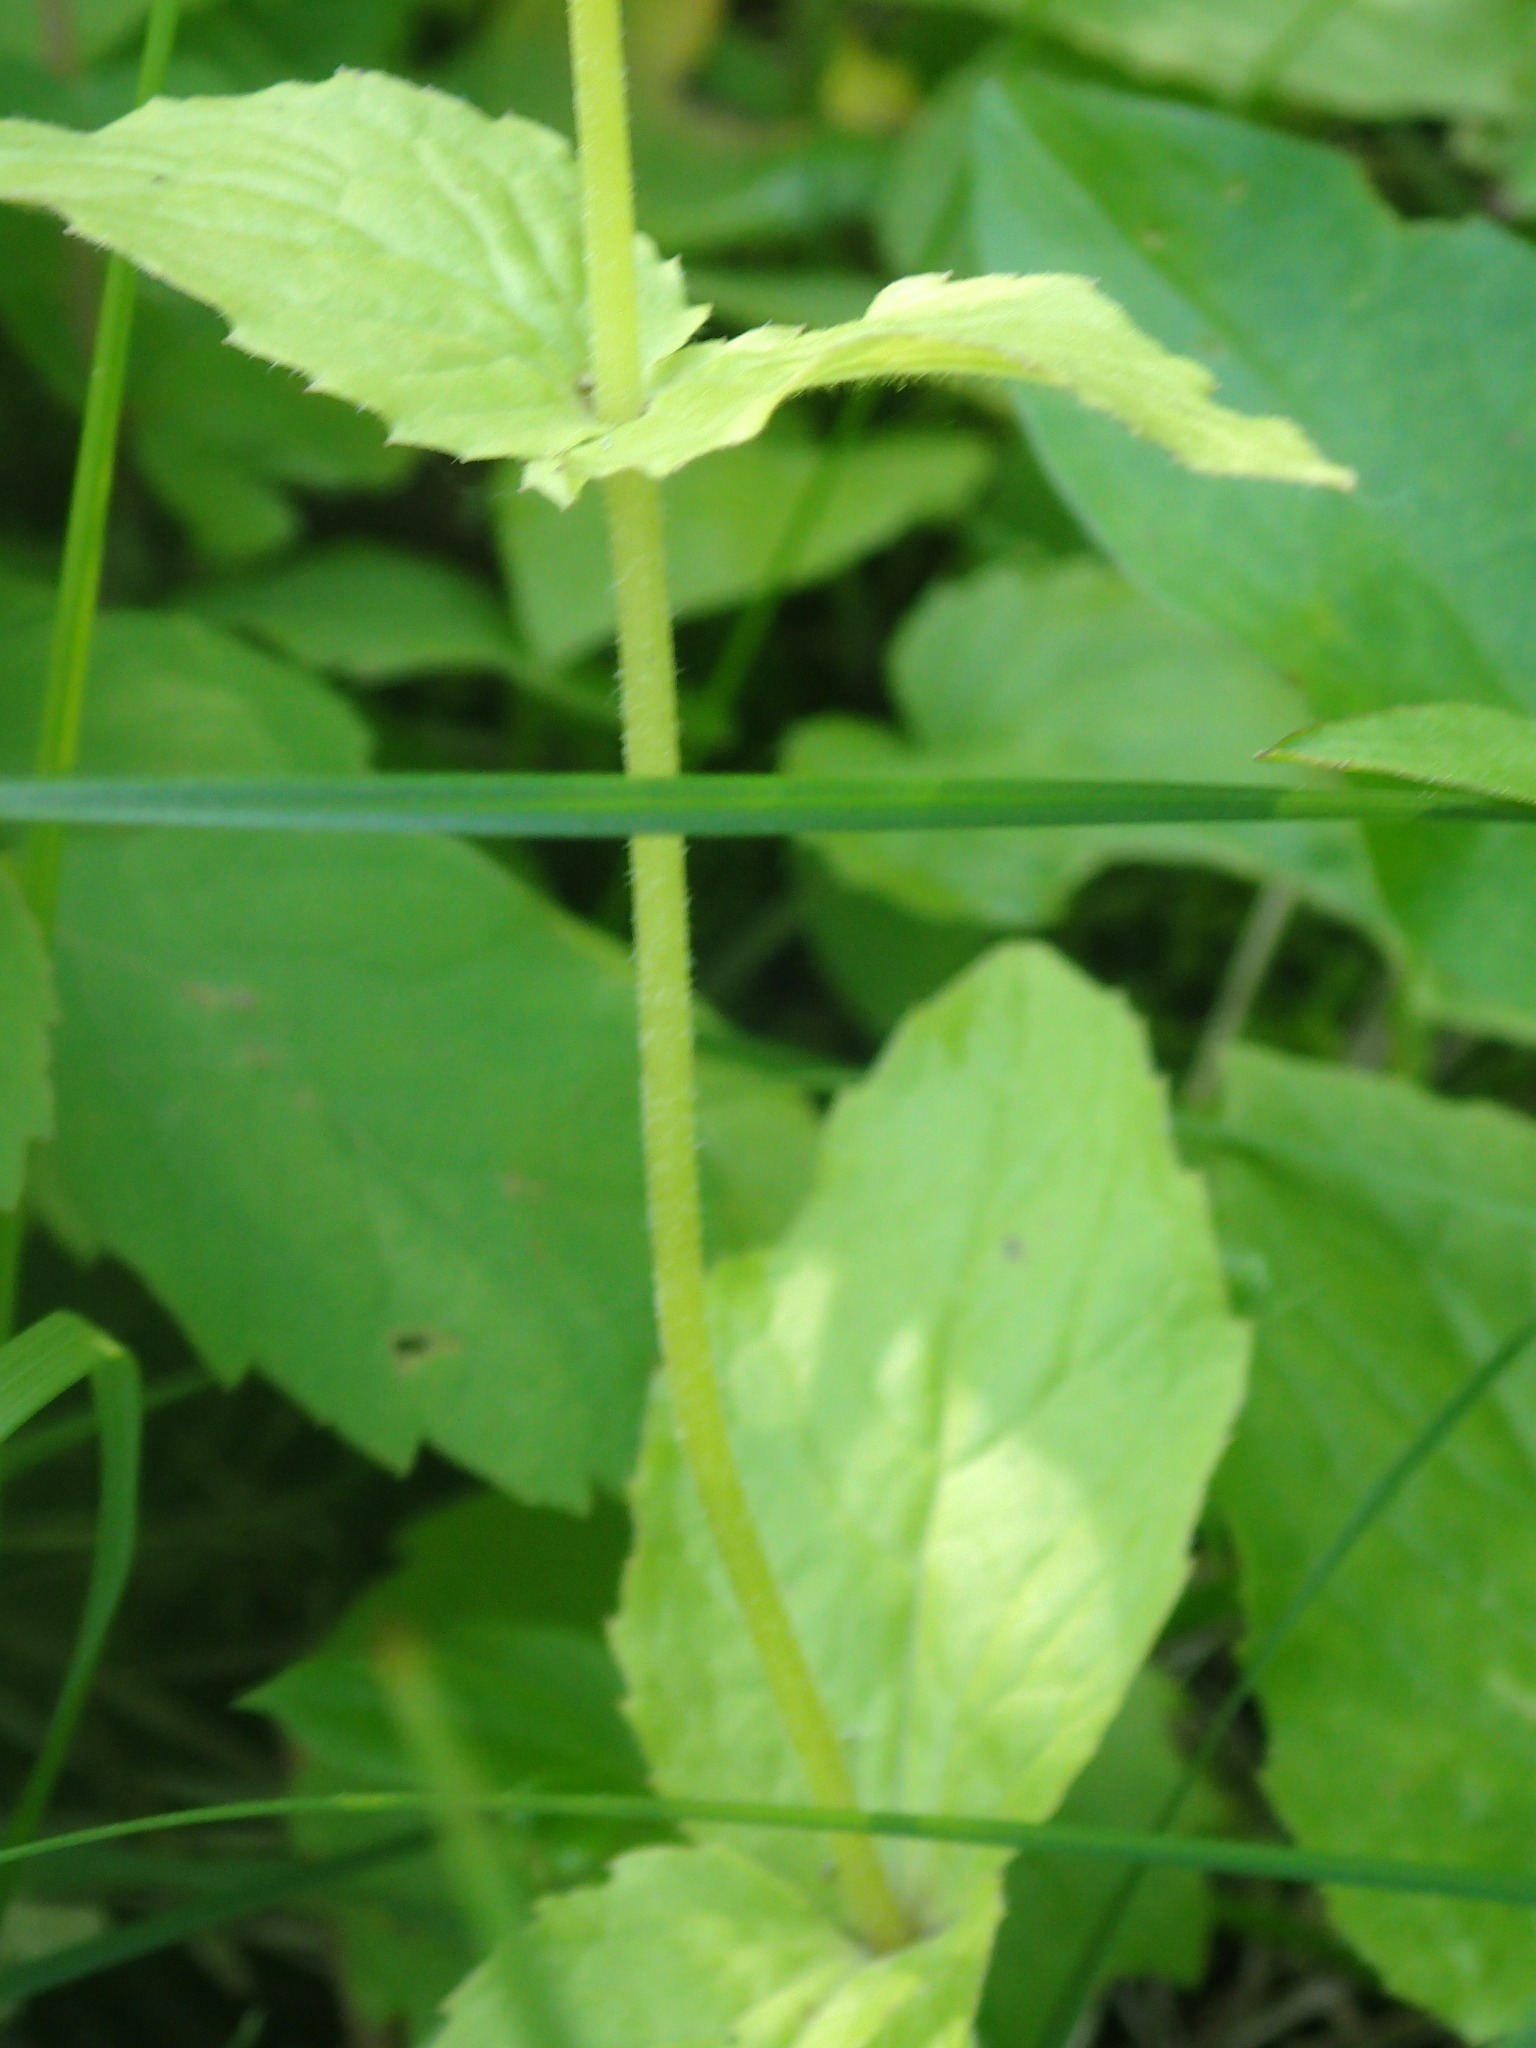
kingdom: Plantae
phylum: Tracheophyta
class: Magnoliopsida
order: Asterales
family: Asteraceae
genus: Arnica
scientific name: Arnica cordifolia
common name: Heart-leaf arnica
